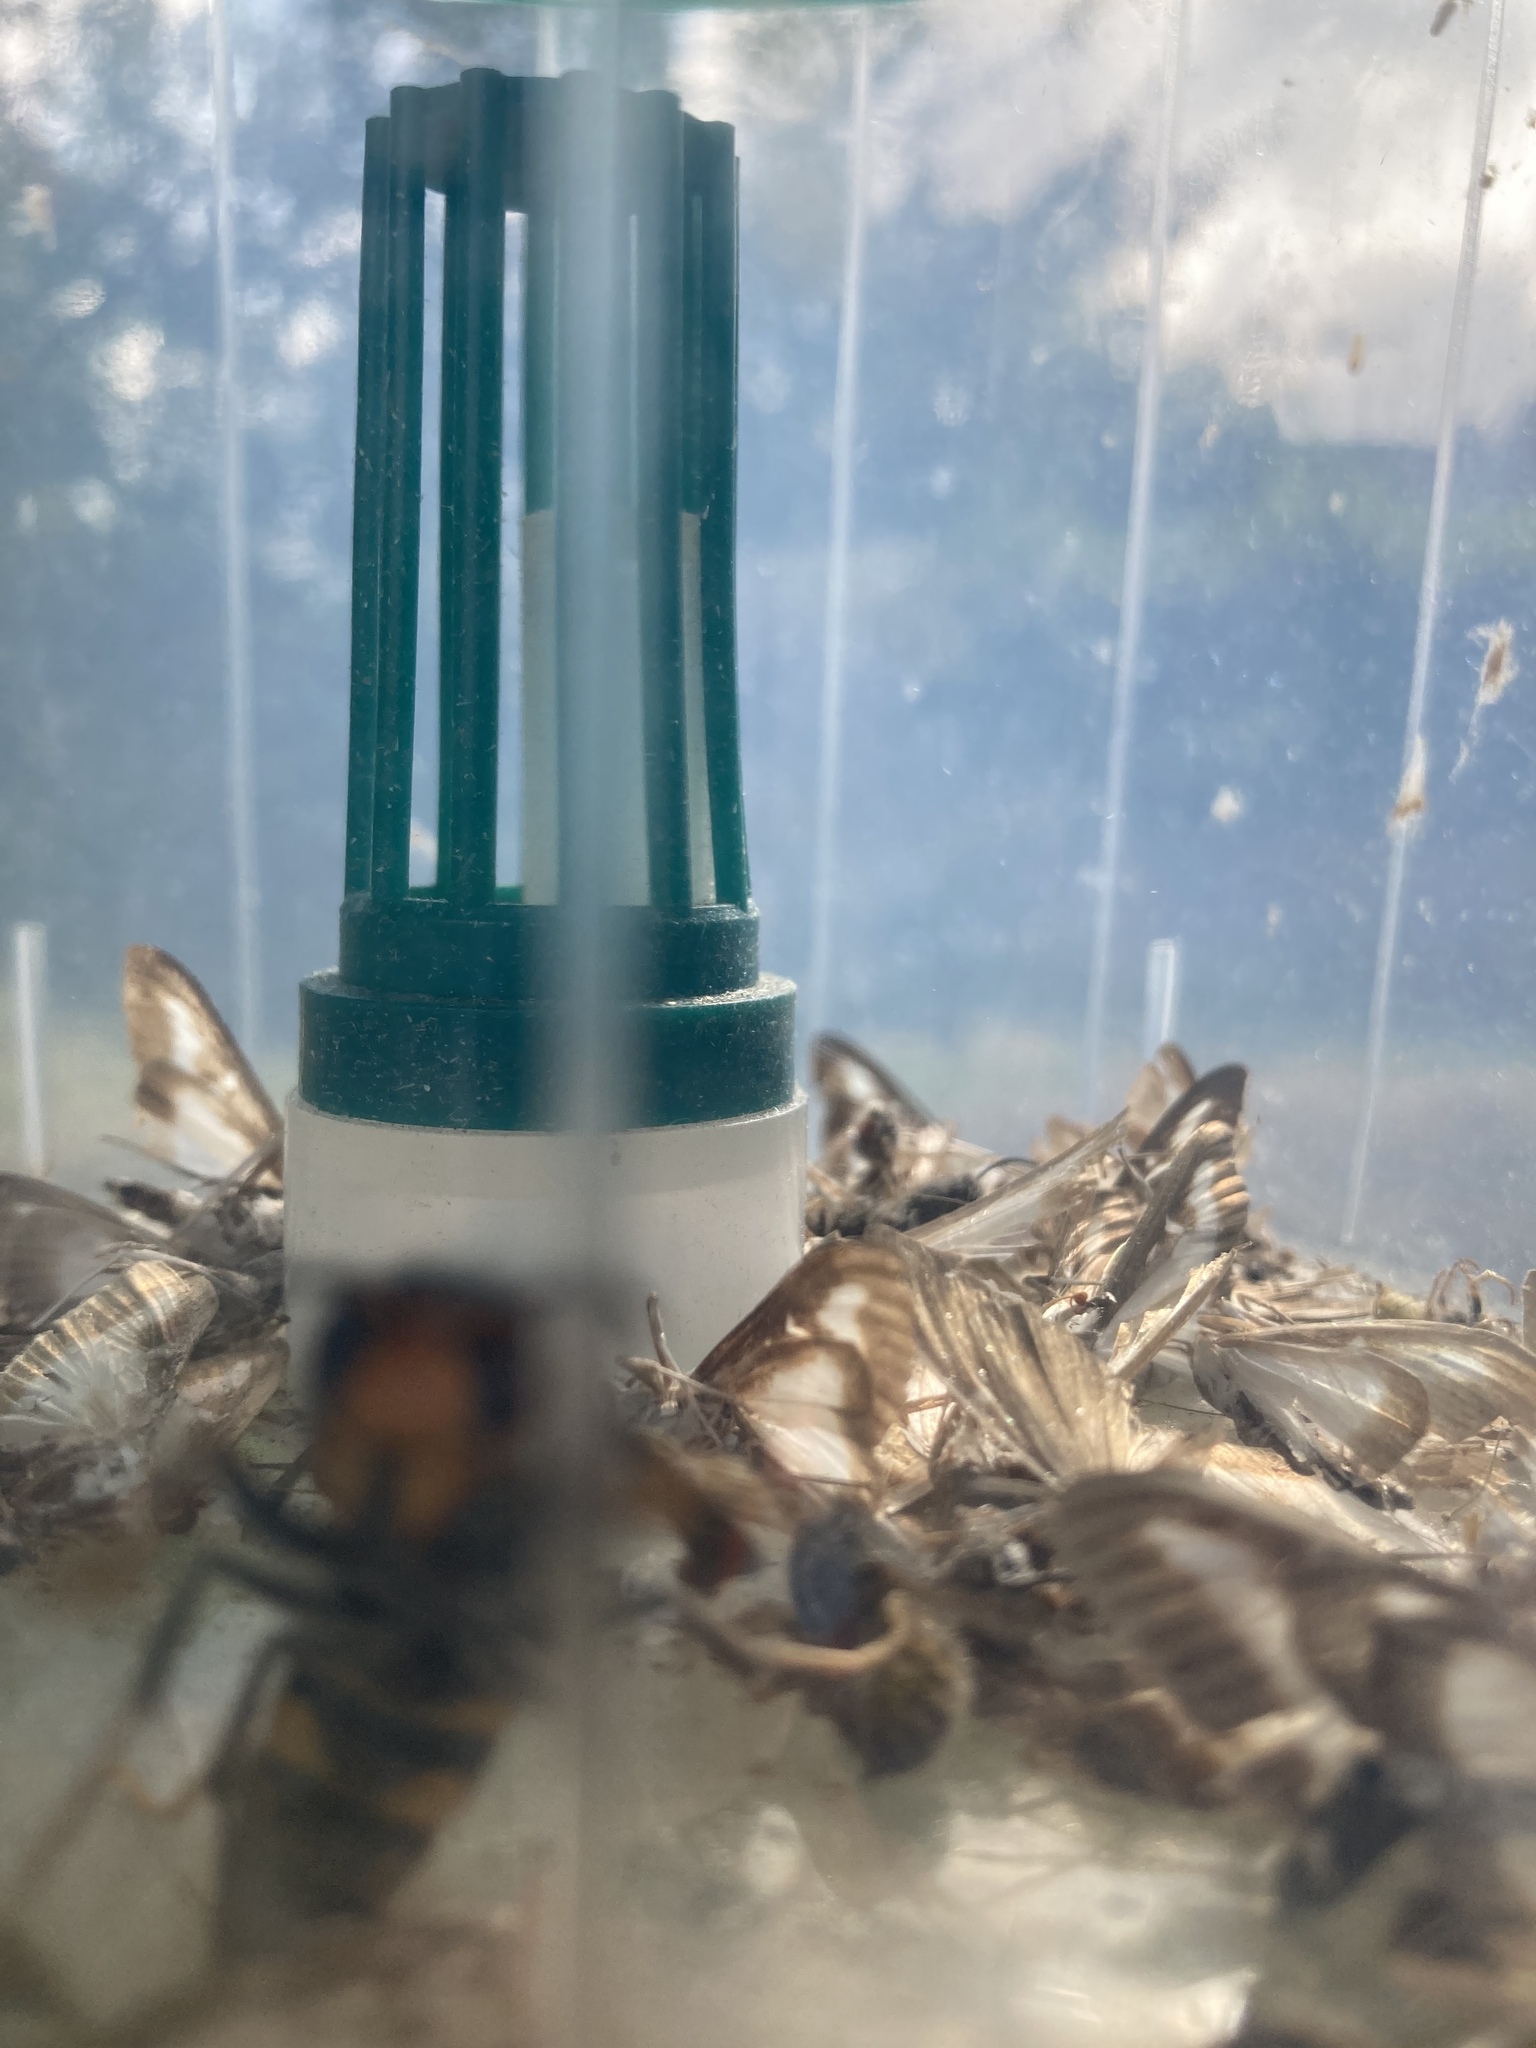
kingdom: Animalia
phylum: Arthropoda
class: Insecta
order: Hymenoptera
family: Vespidae
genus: Vespa
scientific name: Vespa velutina
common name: Asian hornet
